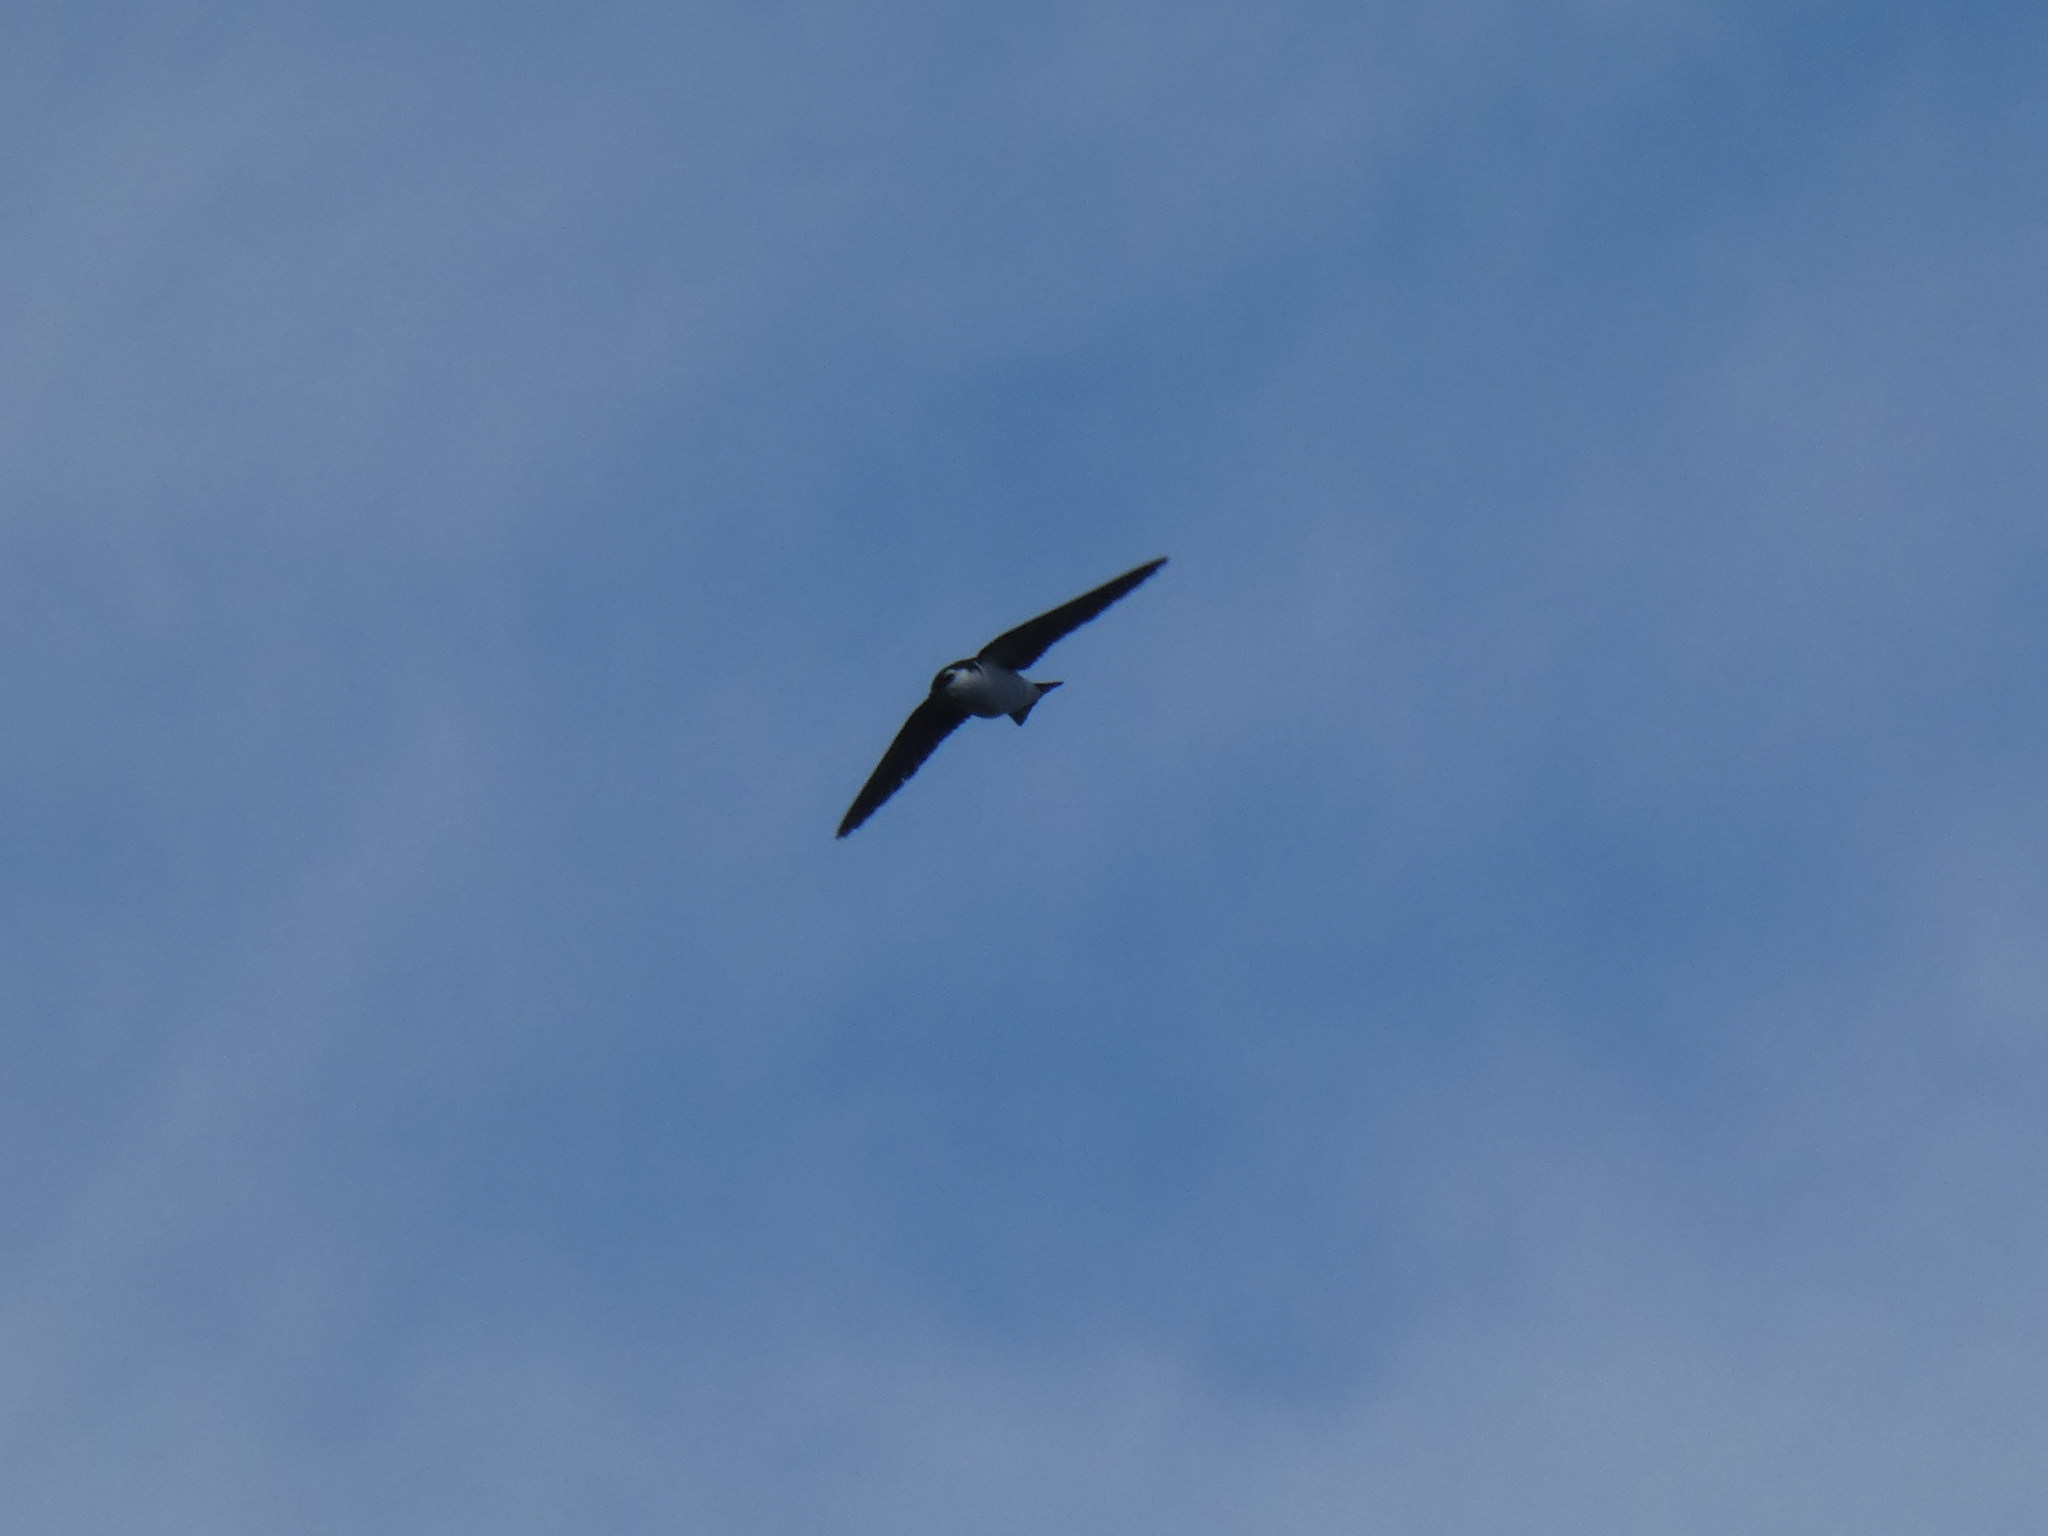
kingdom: Animalia
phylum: Chordata
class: Aves
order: Passeriformes
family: Hirundinidae
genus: Tachycineta
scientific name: Tachycineta thalassina
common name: Violet-green swallow
